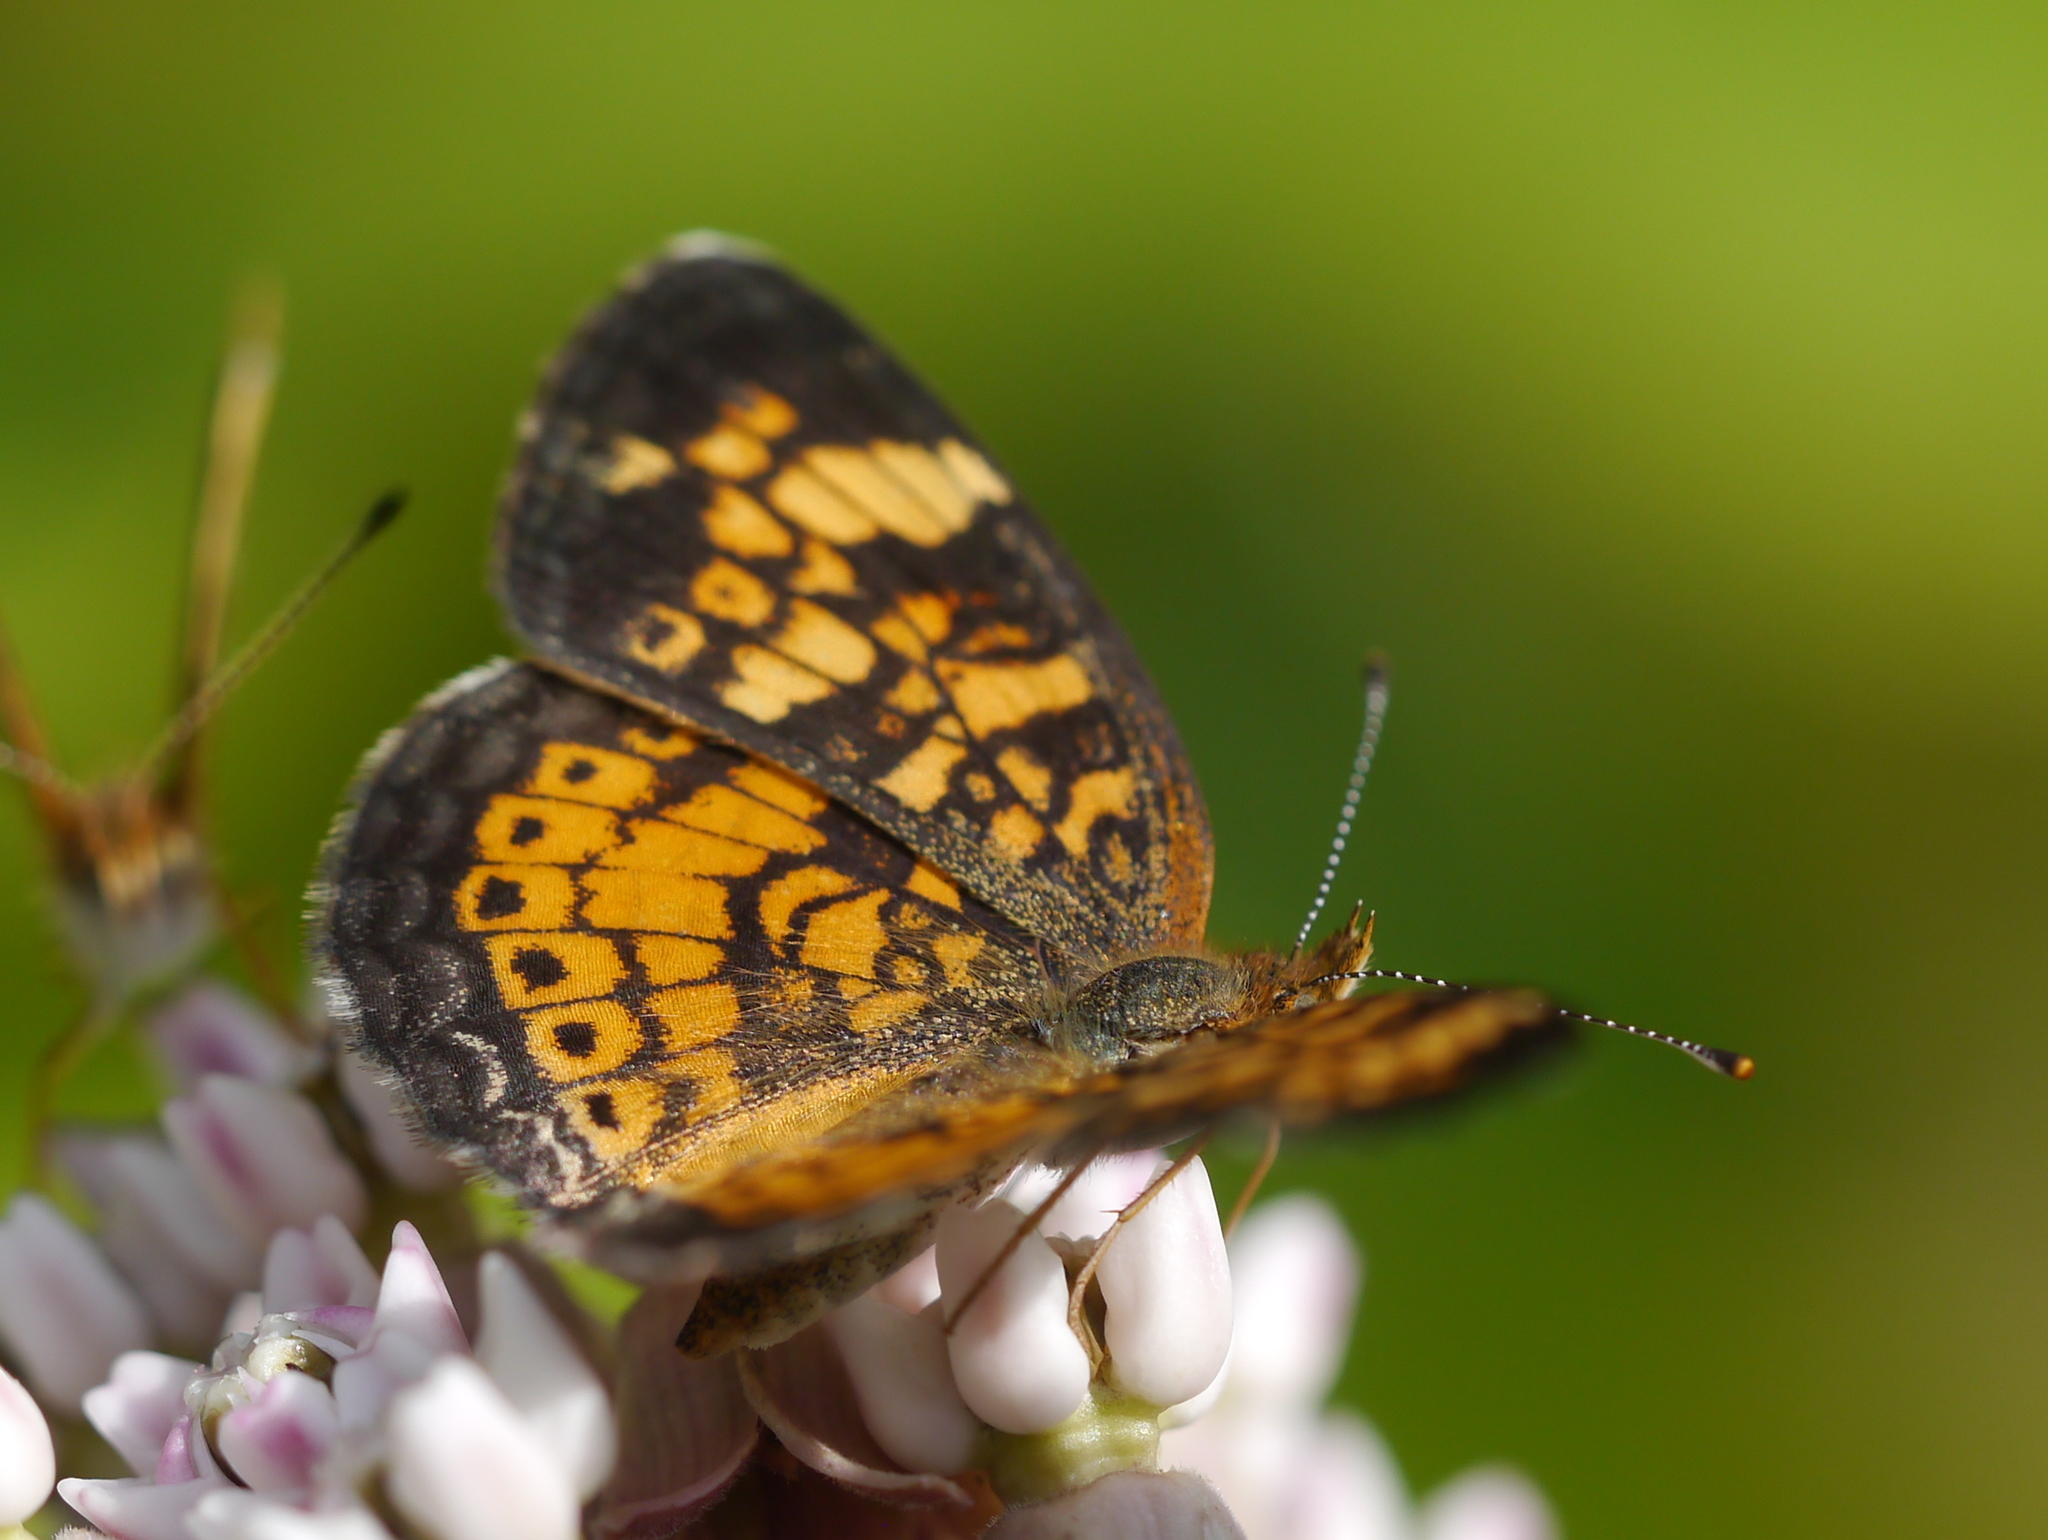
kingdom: Animalia
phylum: Arthropoda
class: Insecta
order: Lepidoptera
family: Nymphalidae
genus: Phyciodes
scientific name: Phyciodes tharos
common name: Pearl crescent
